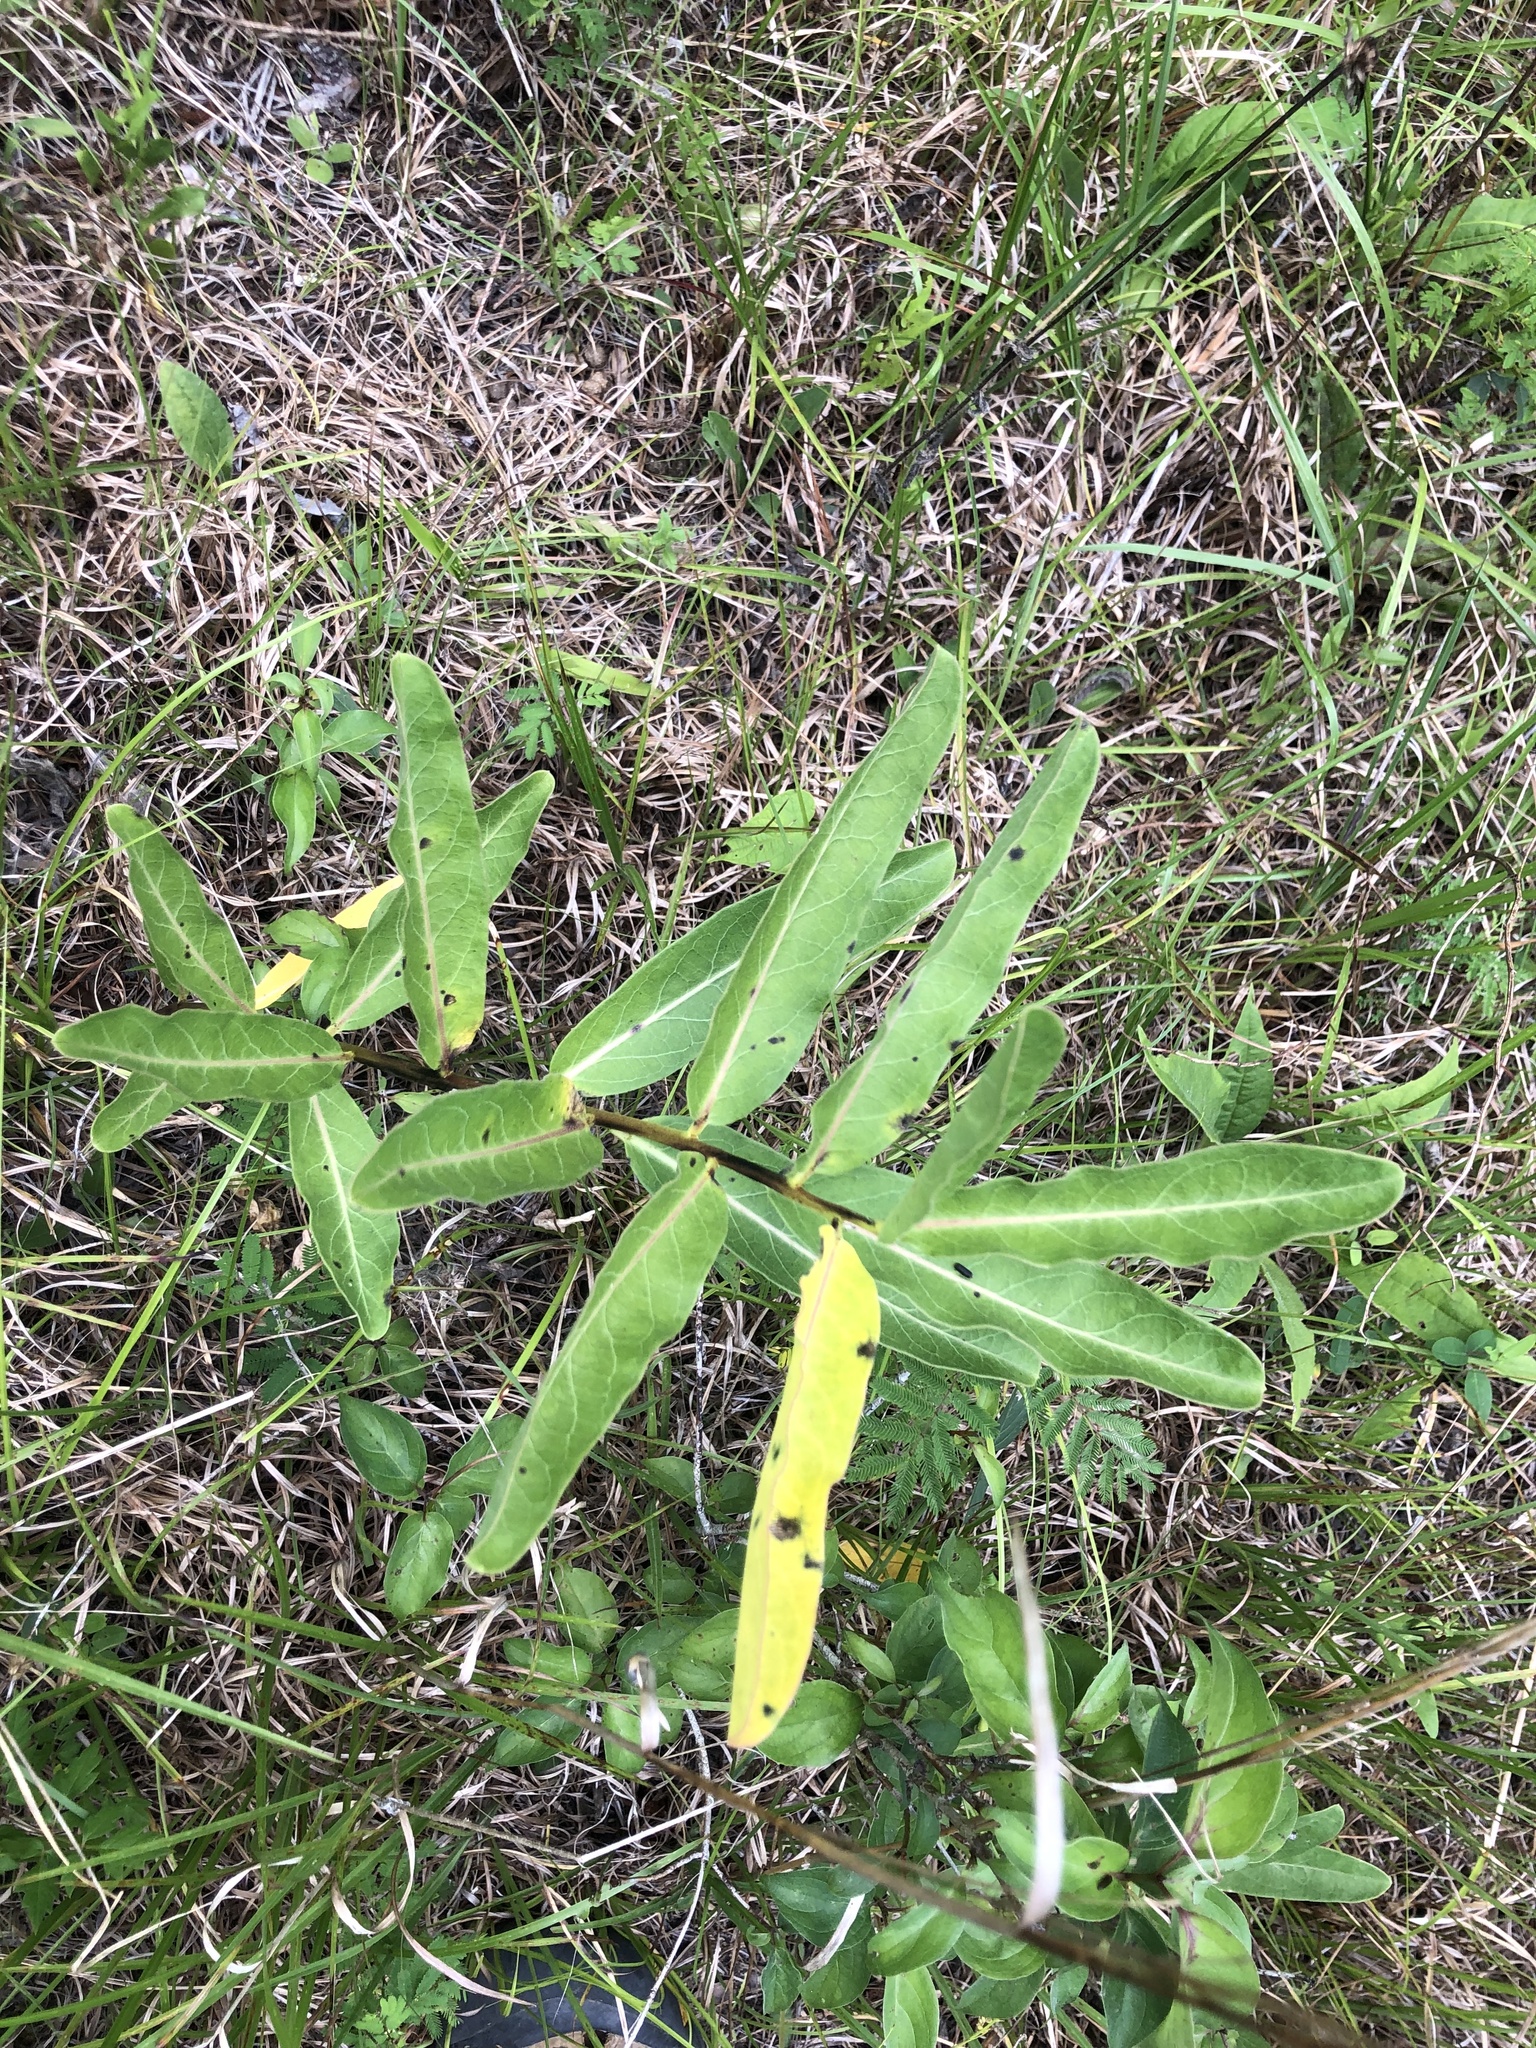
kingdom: Plantae
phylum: Tracheophyta
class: Magnoliopsida
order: Gentianales
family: Apocynaceae
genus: Asclepias
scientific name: Asclepias viridis
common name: Antelope-horns
